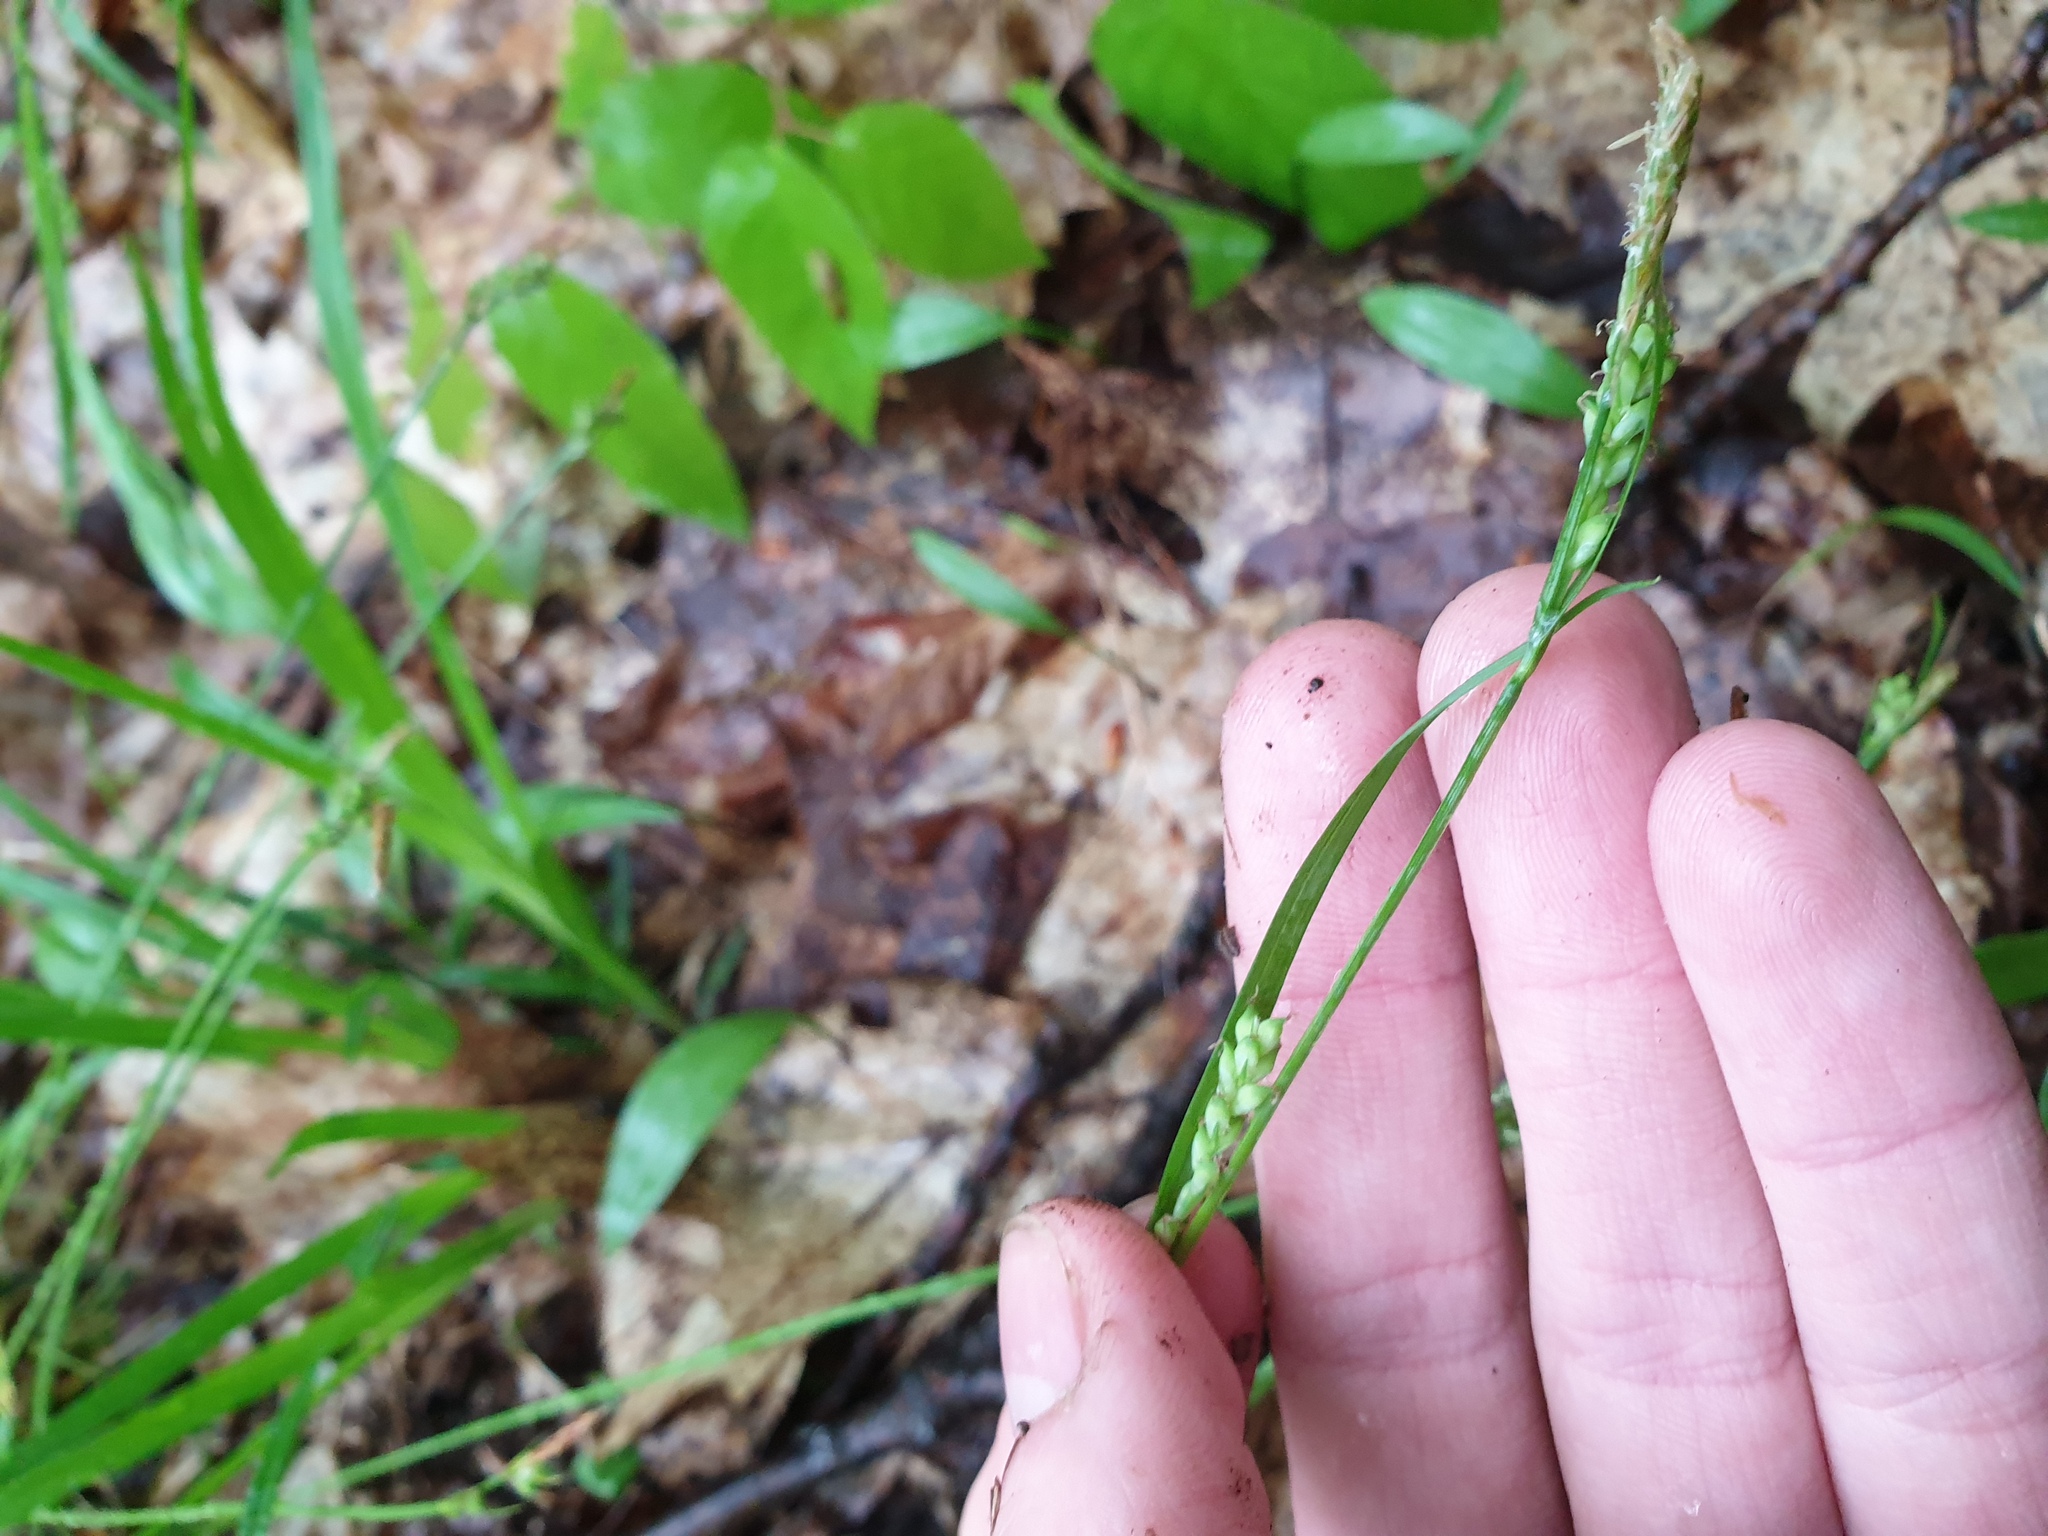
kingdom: Plantae
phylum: Tracheophyta
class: Liliopsida
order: Poales
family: Cyperaceae
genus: Carex
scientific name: Carex albursina
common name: Blunt-scale wood sedge
